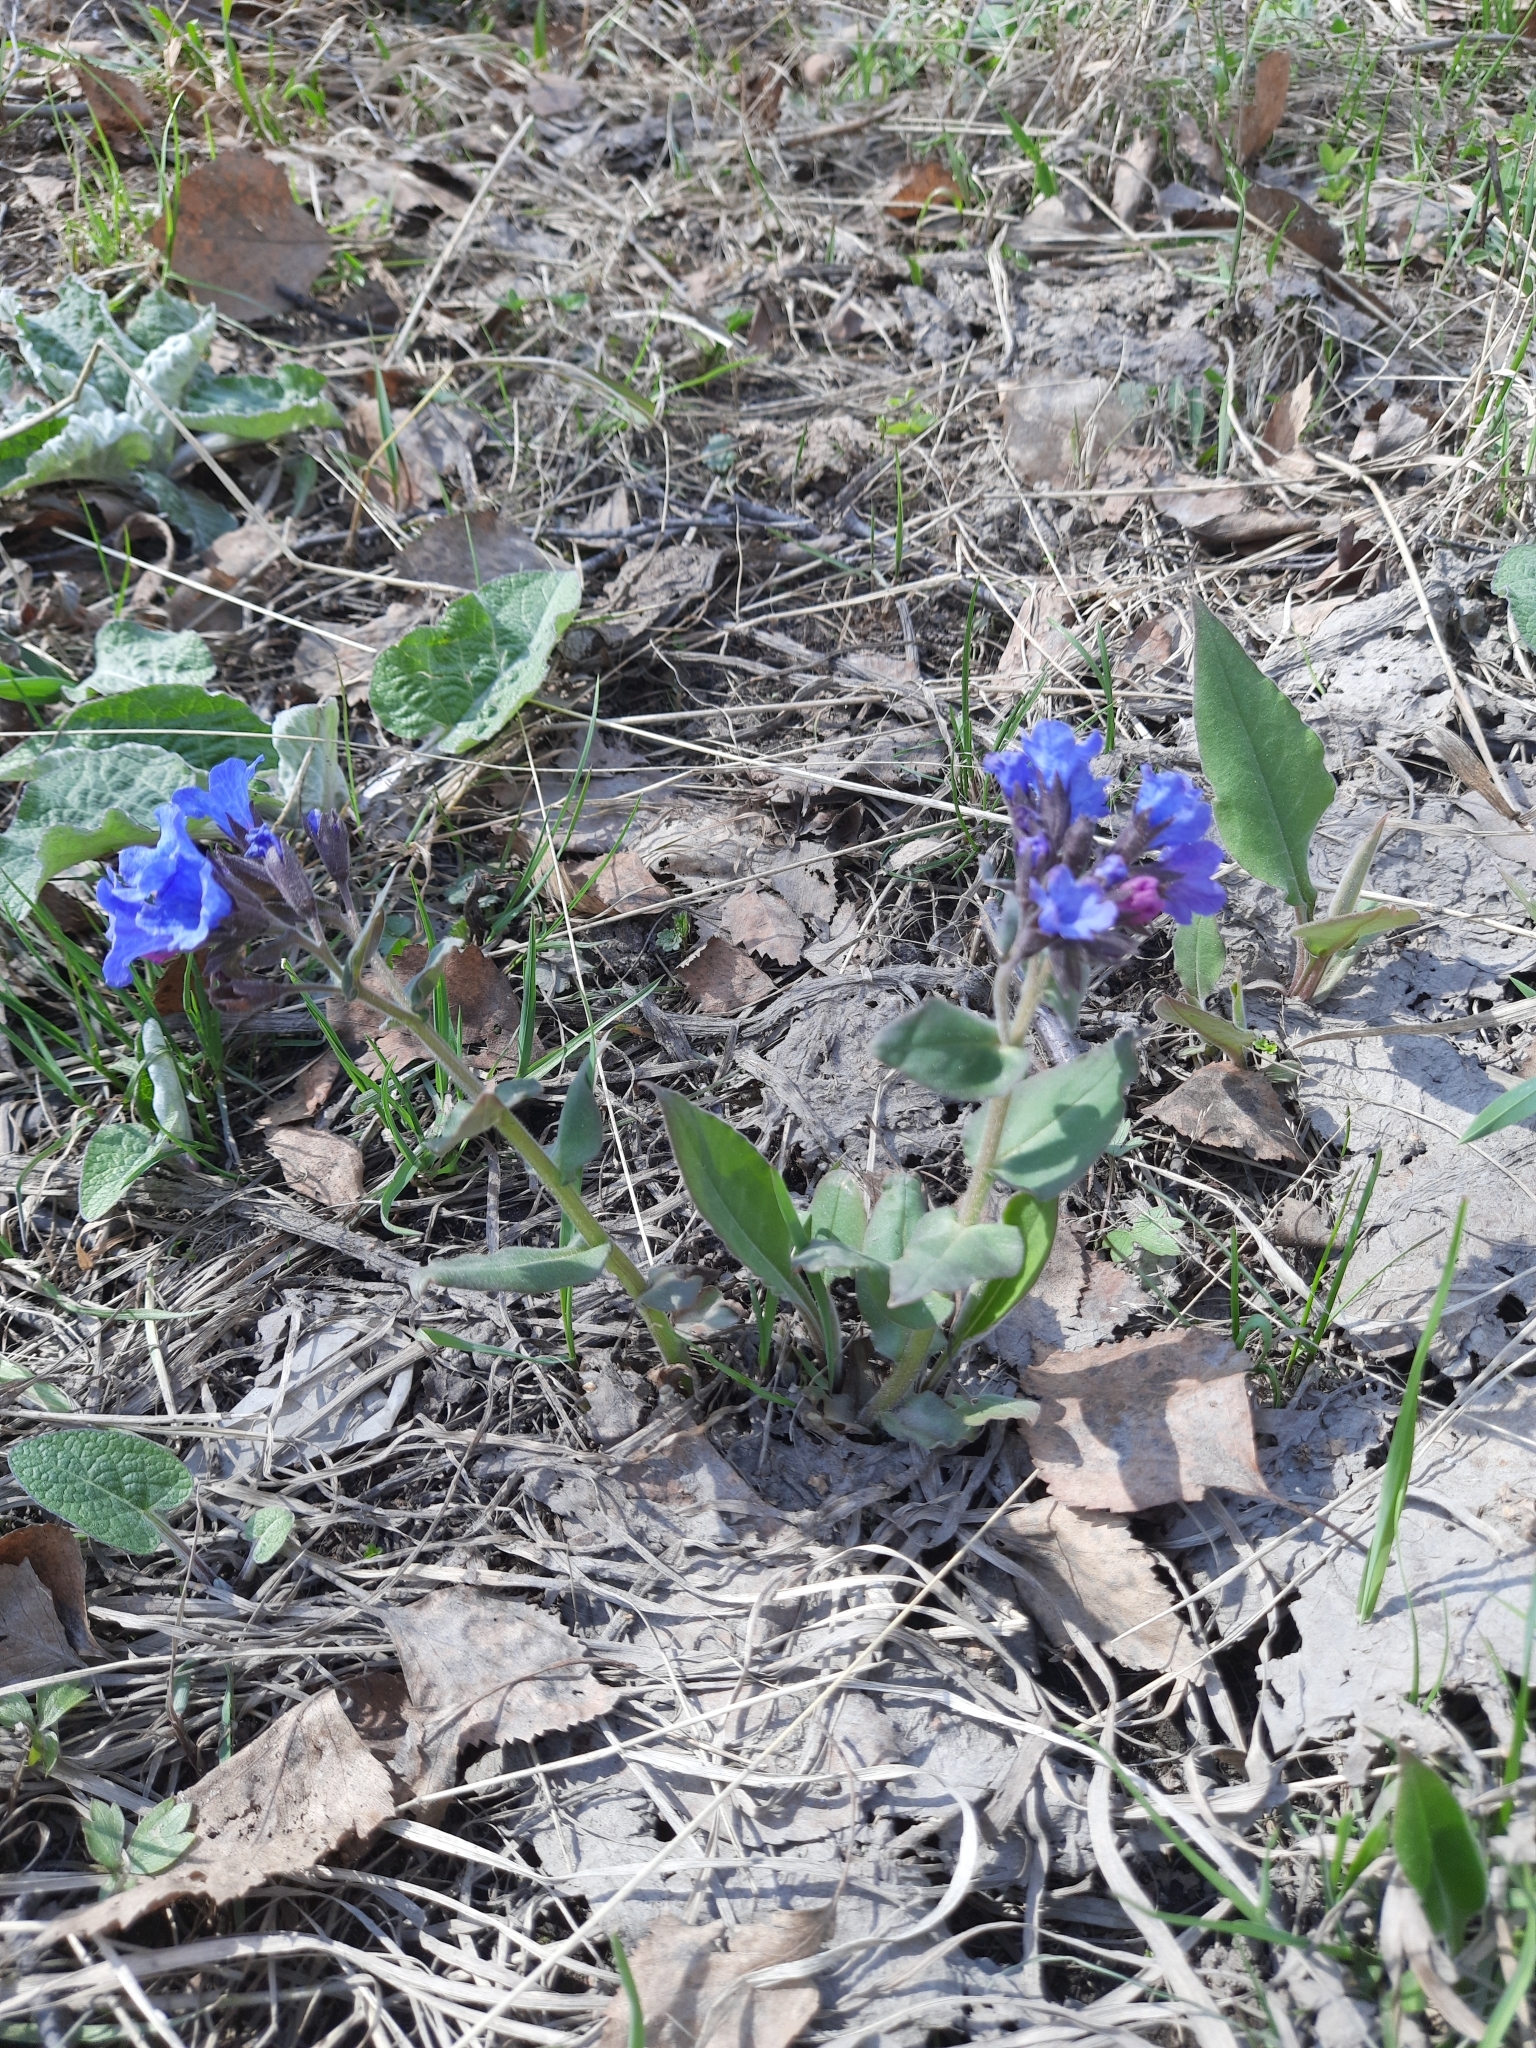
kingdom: Plantae
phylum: Tracheophyta
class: Magnoliopsida
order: Boraginales
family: Boraginaceae
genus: Pulmonaria
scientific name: Pulmonaria mollis
